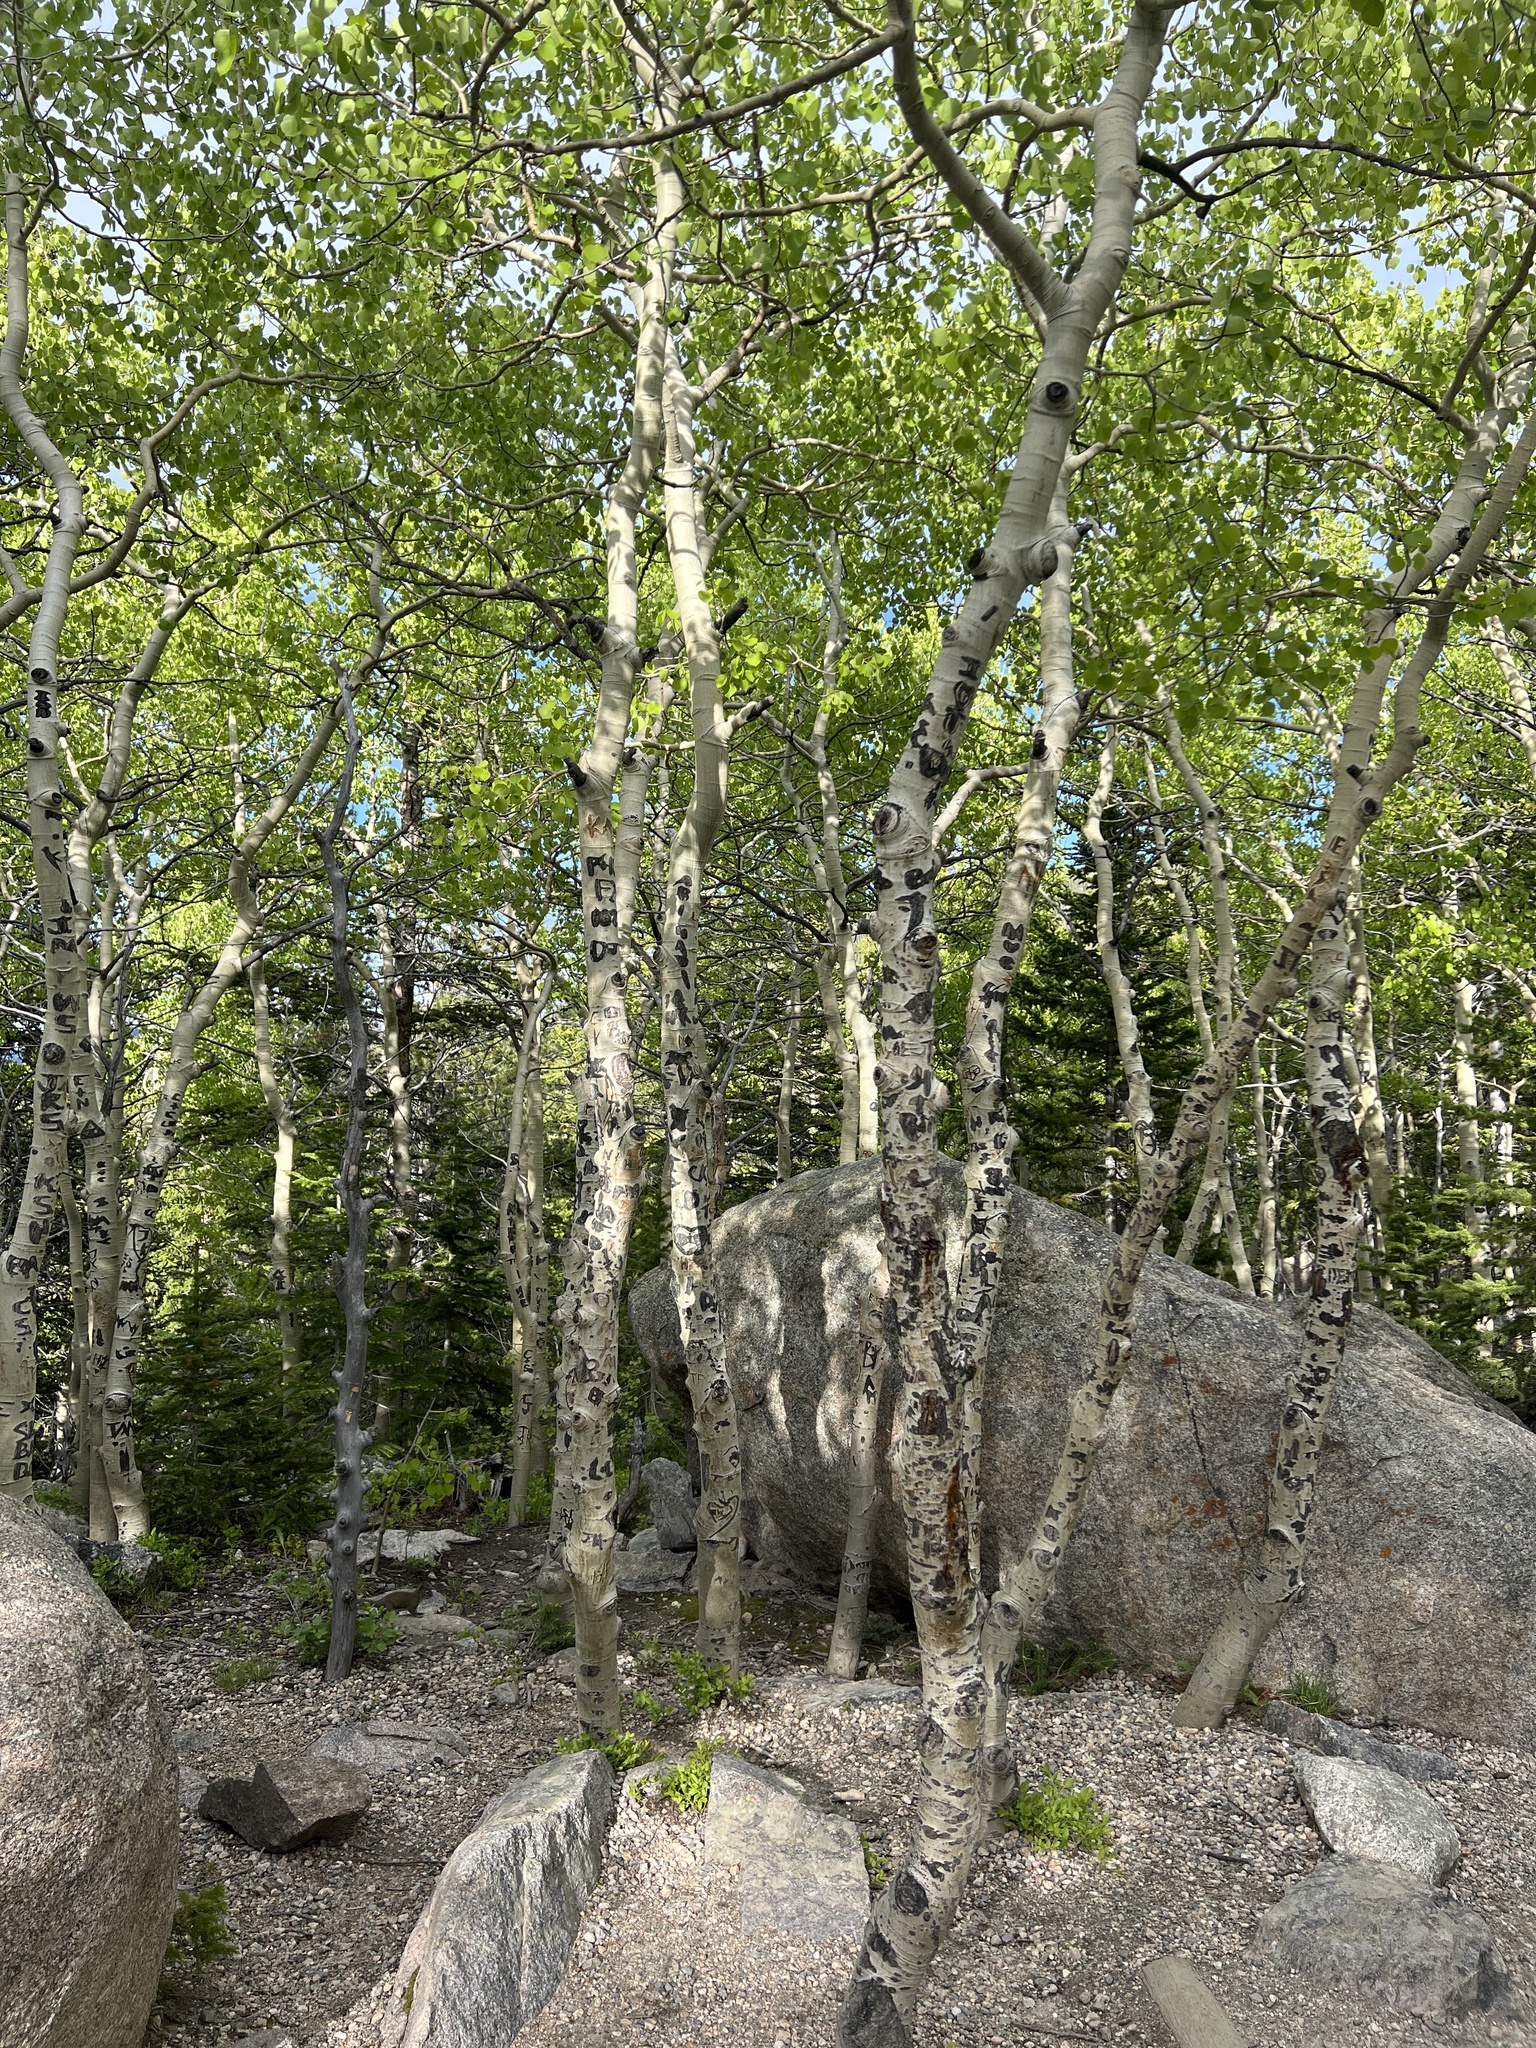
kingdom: Plantae
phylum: Tracheophyta
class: Magnoliopsida
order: Malpighiales
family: Salicaceae
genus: Populus
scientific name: Populus tremuloides
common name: Quaking aspen
